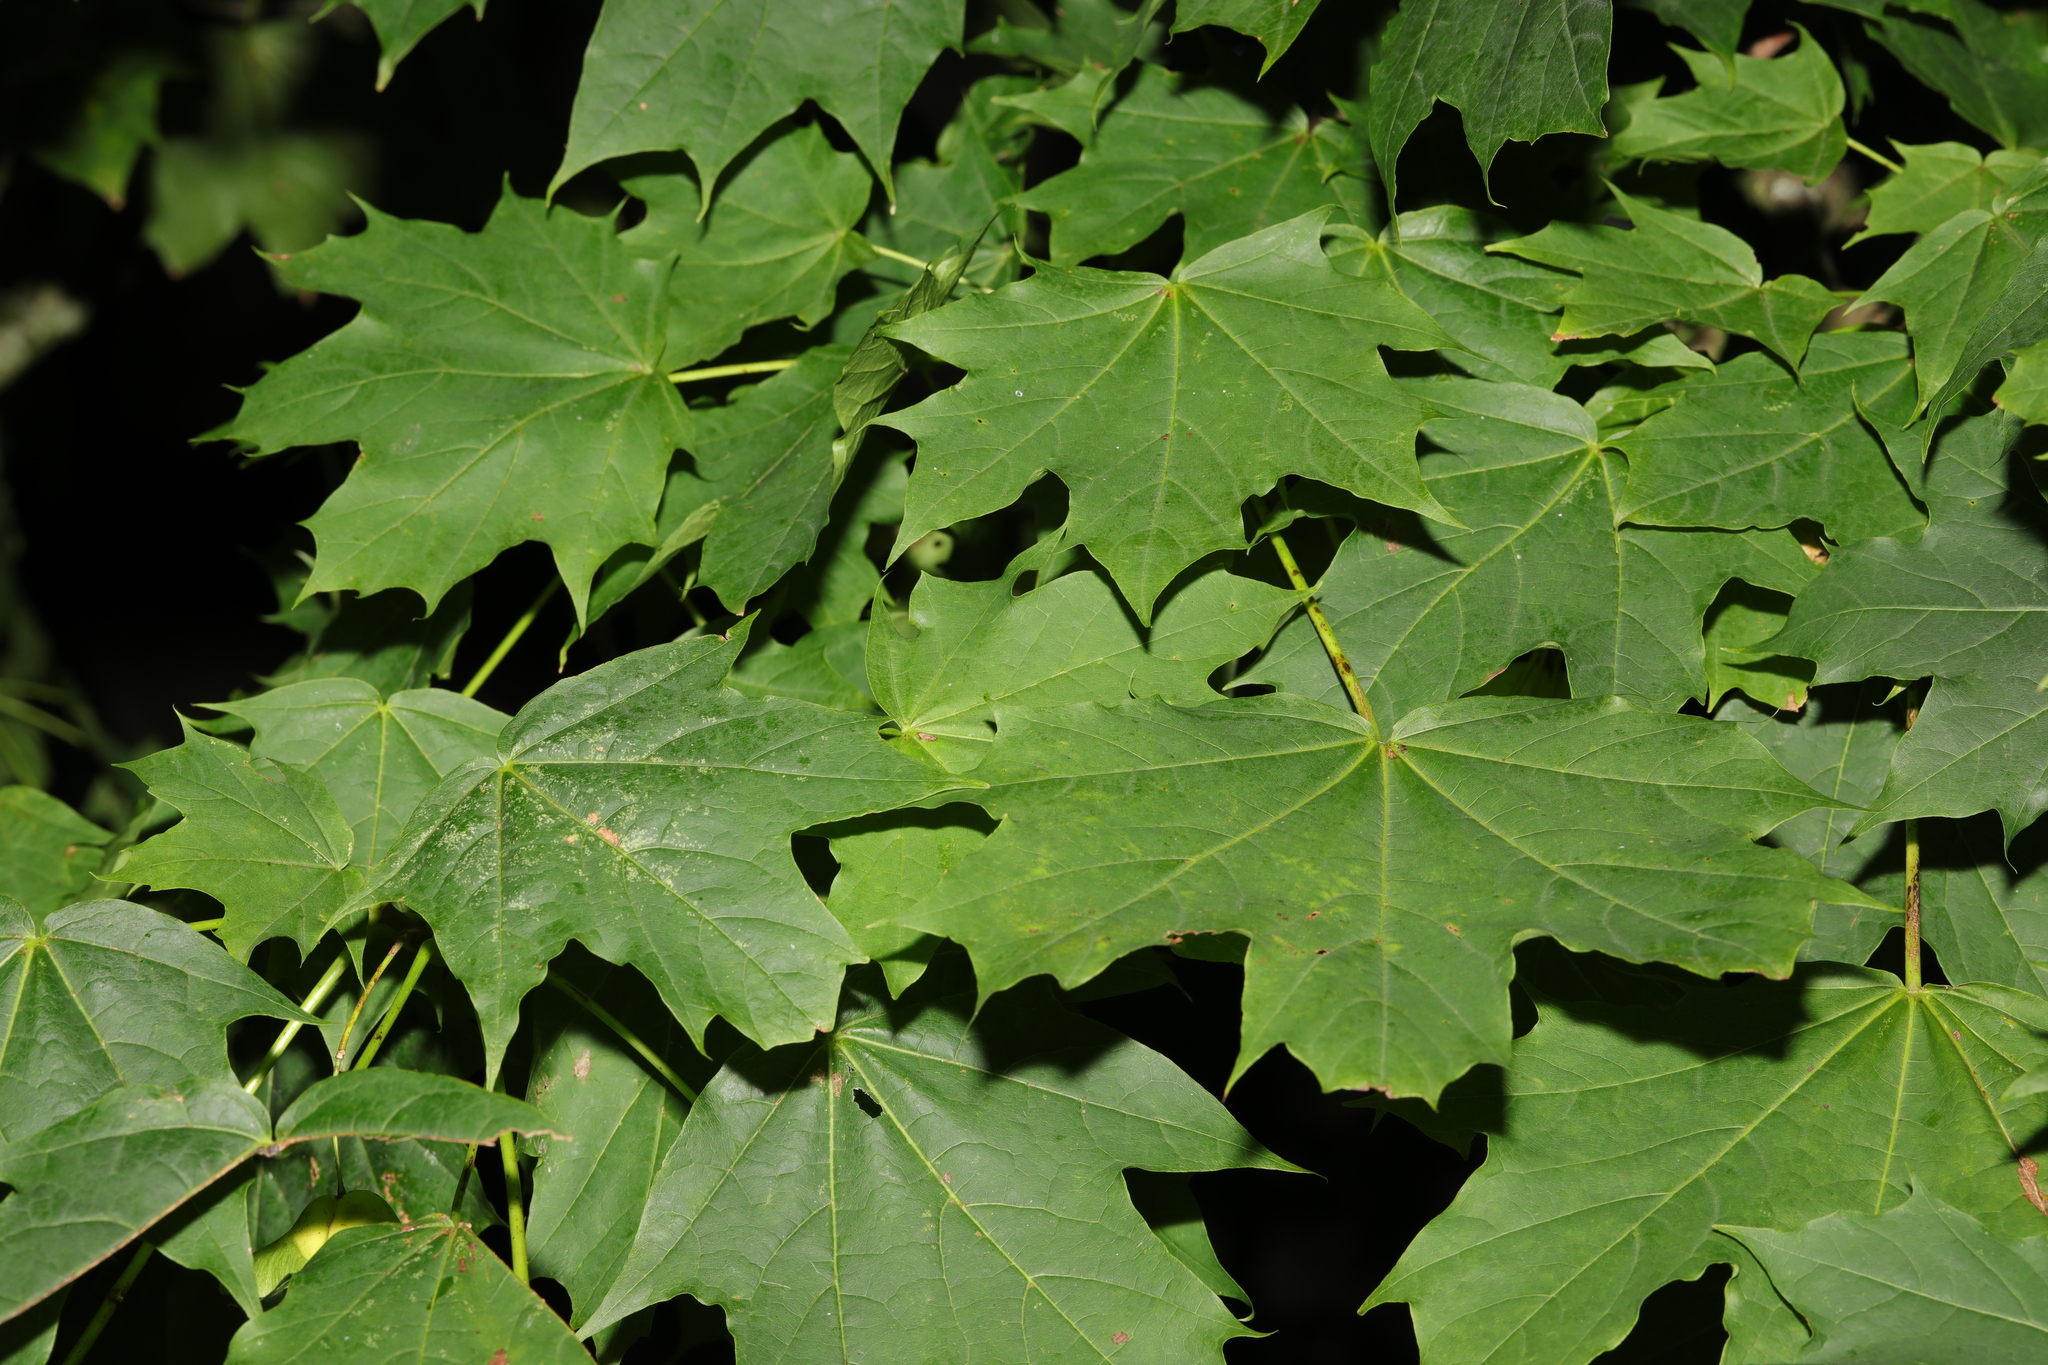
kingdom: Plantae
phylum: Tracheophyta
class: Magnoliopsida
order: Sapindales
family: Sapindaceae
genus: Acer
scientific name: Acer platanoides
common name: Norway maple
